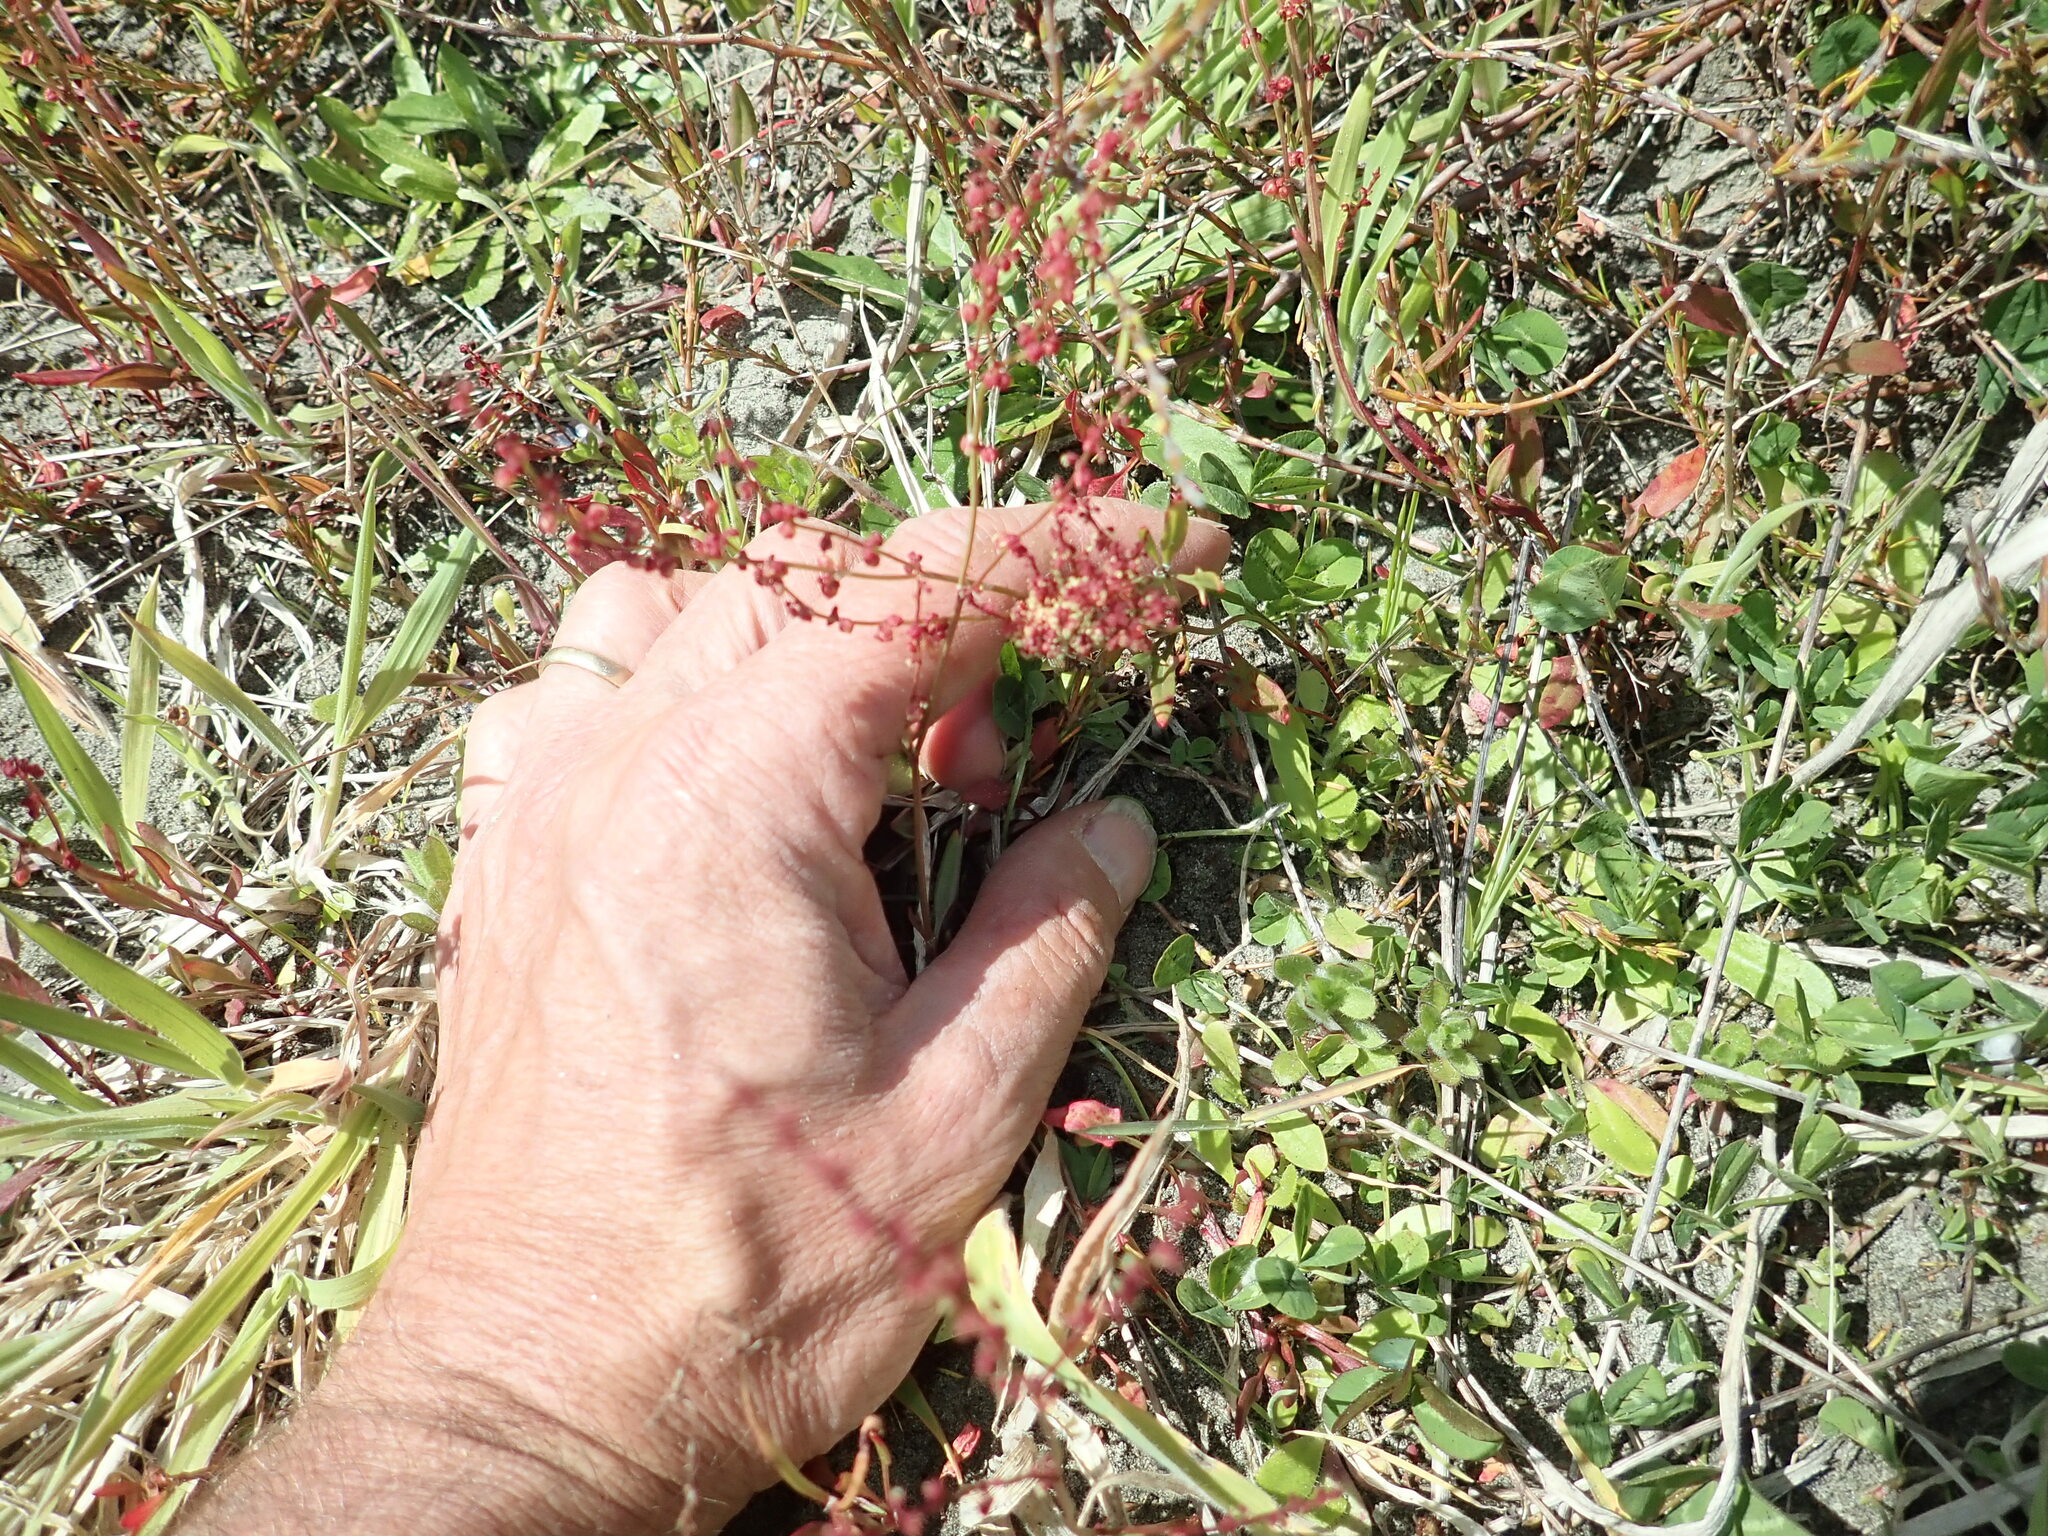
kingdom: Plantae
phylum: Tracheophyta
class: Magnoliopsida
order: Caryophyllales
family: Polygonaceae
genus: Rumex
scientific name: Rumex acetosella
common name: Common sheep sorrel
